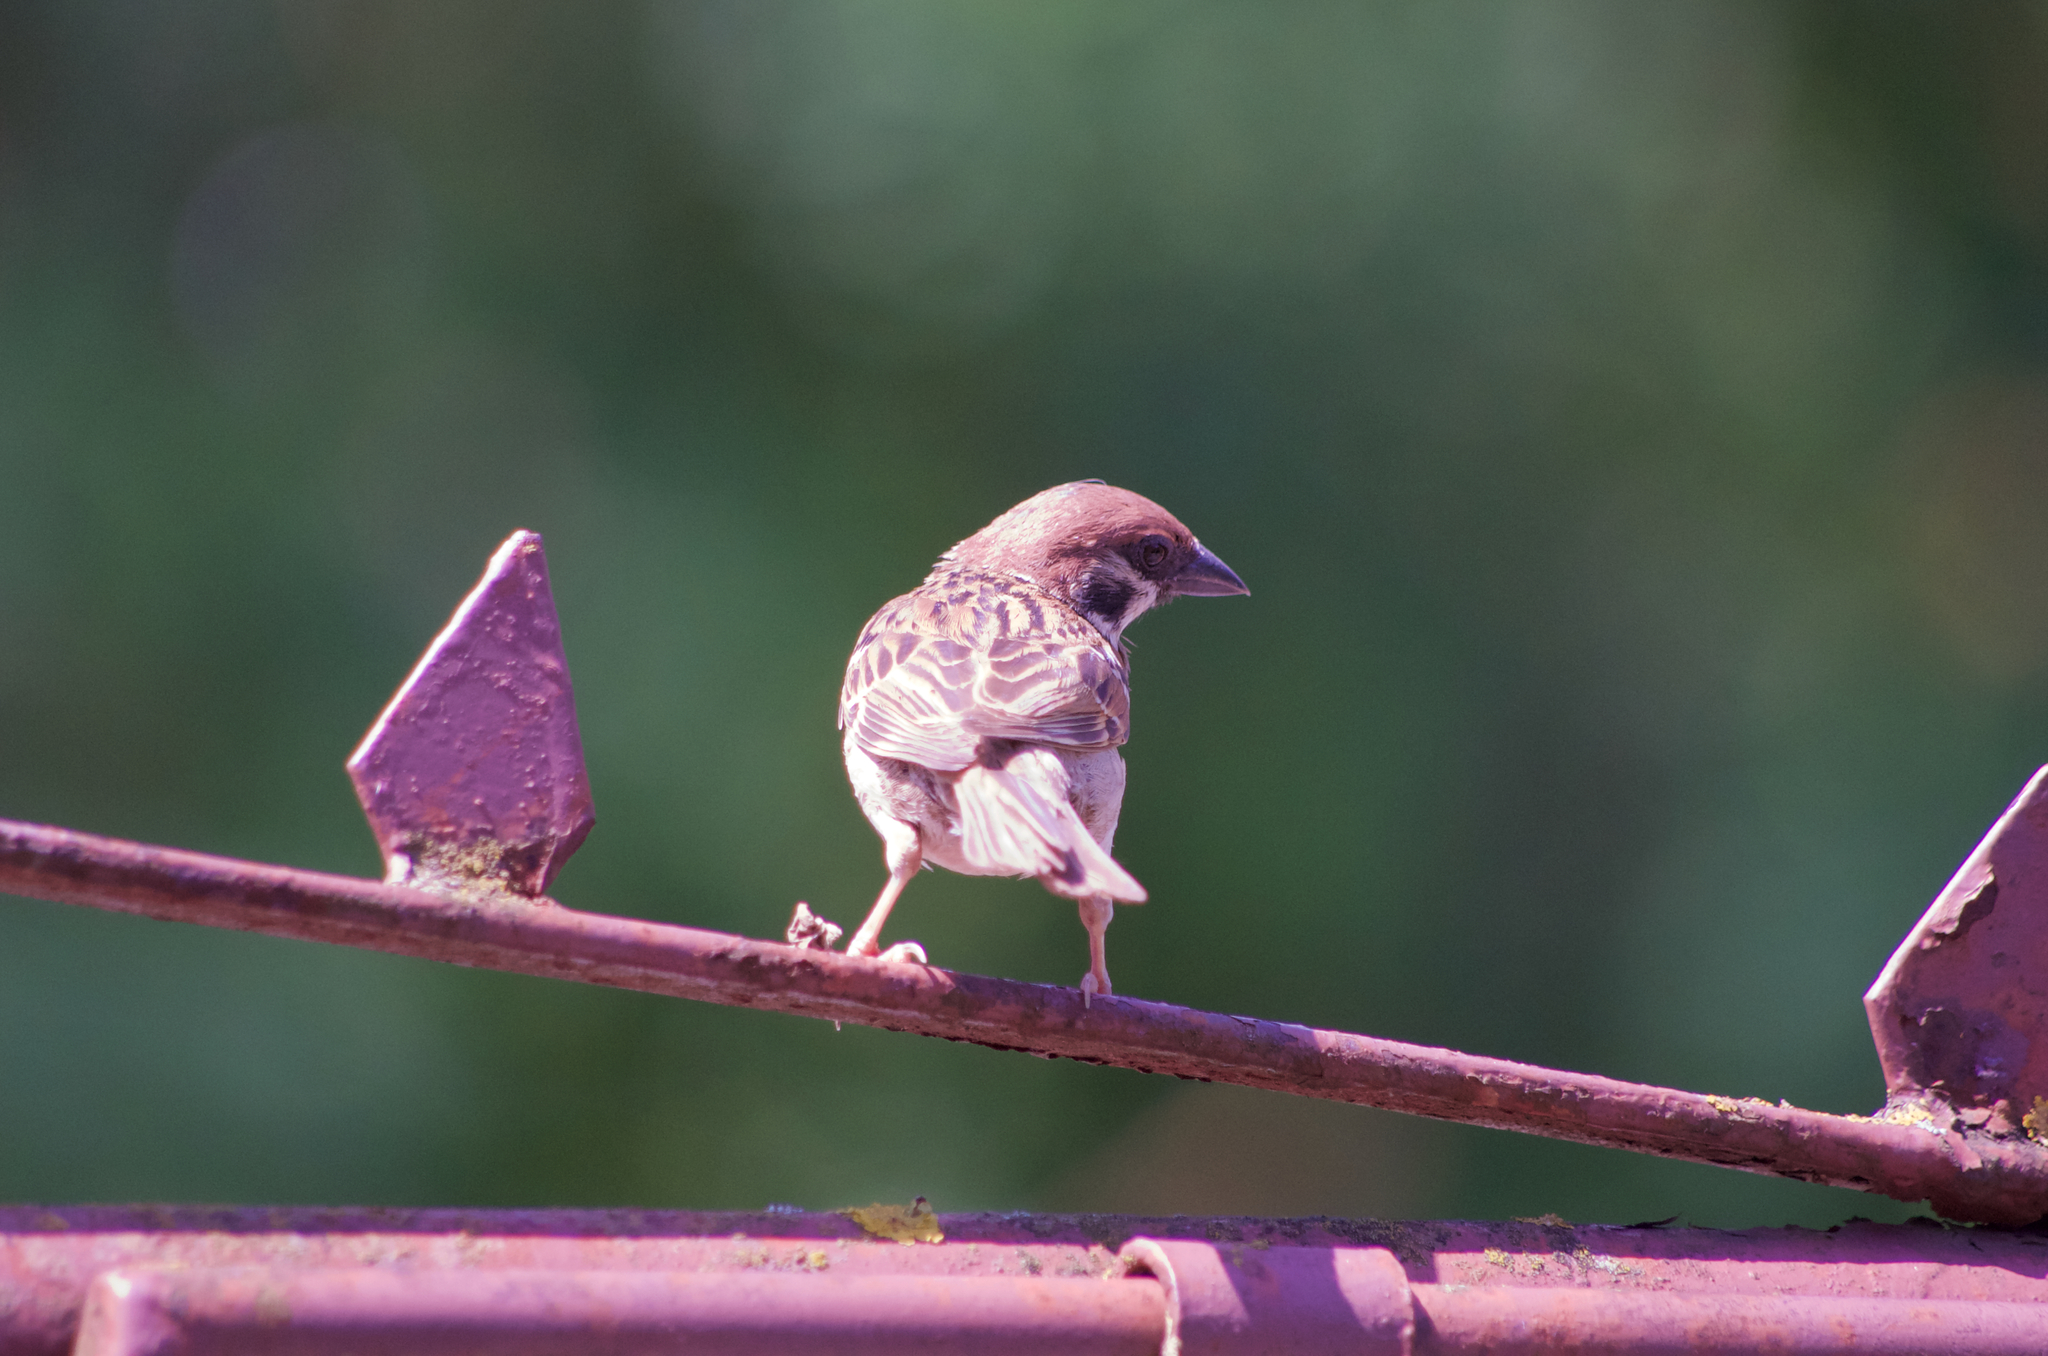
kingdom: Animalia
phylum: Chordata
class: Aves
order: Passeriformes
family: Passeridae
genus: Passer
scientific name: Passer montanus
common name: Eurasian tree sparrow
